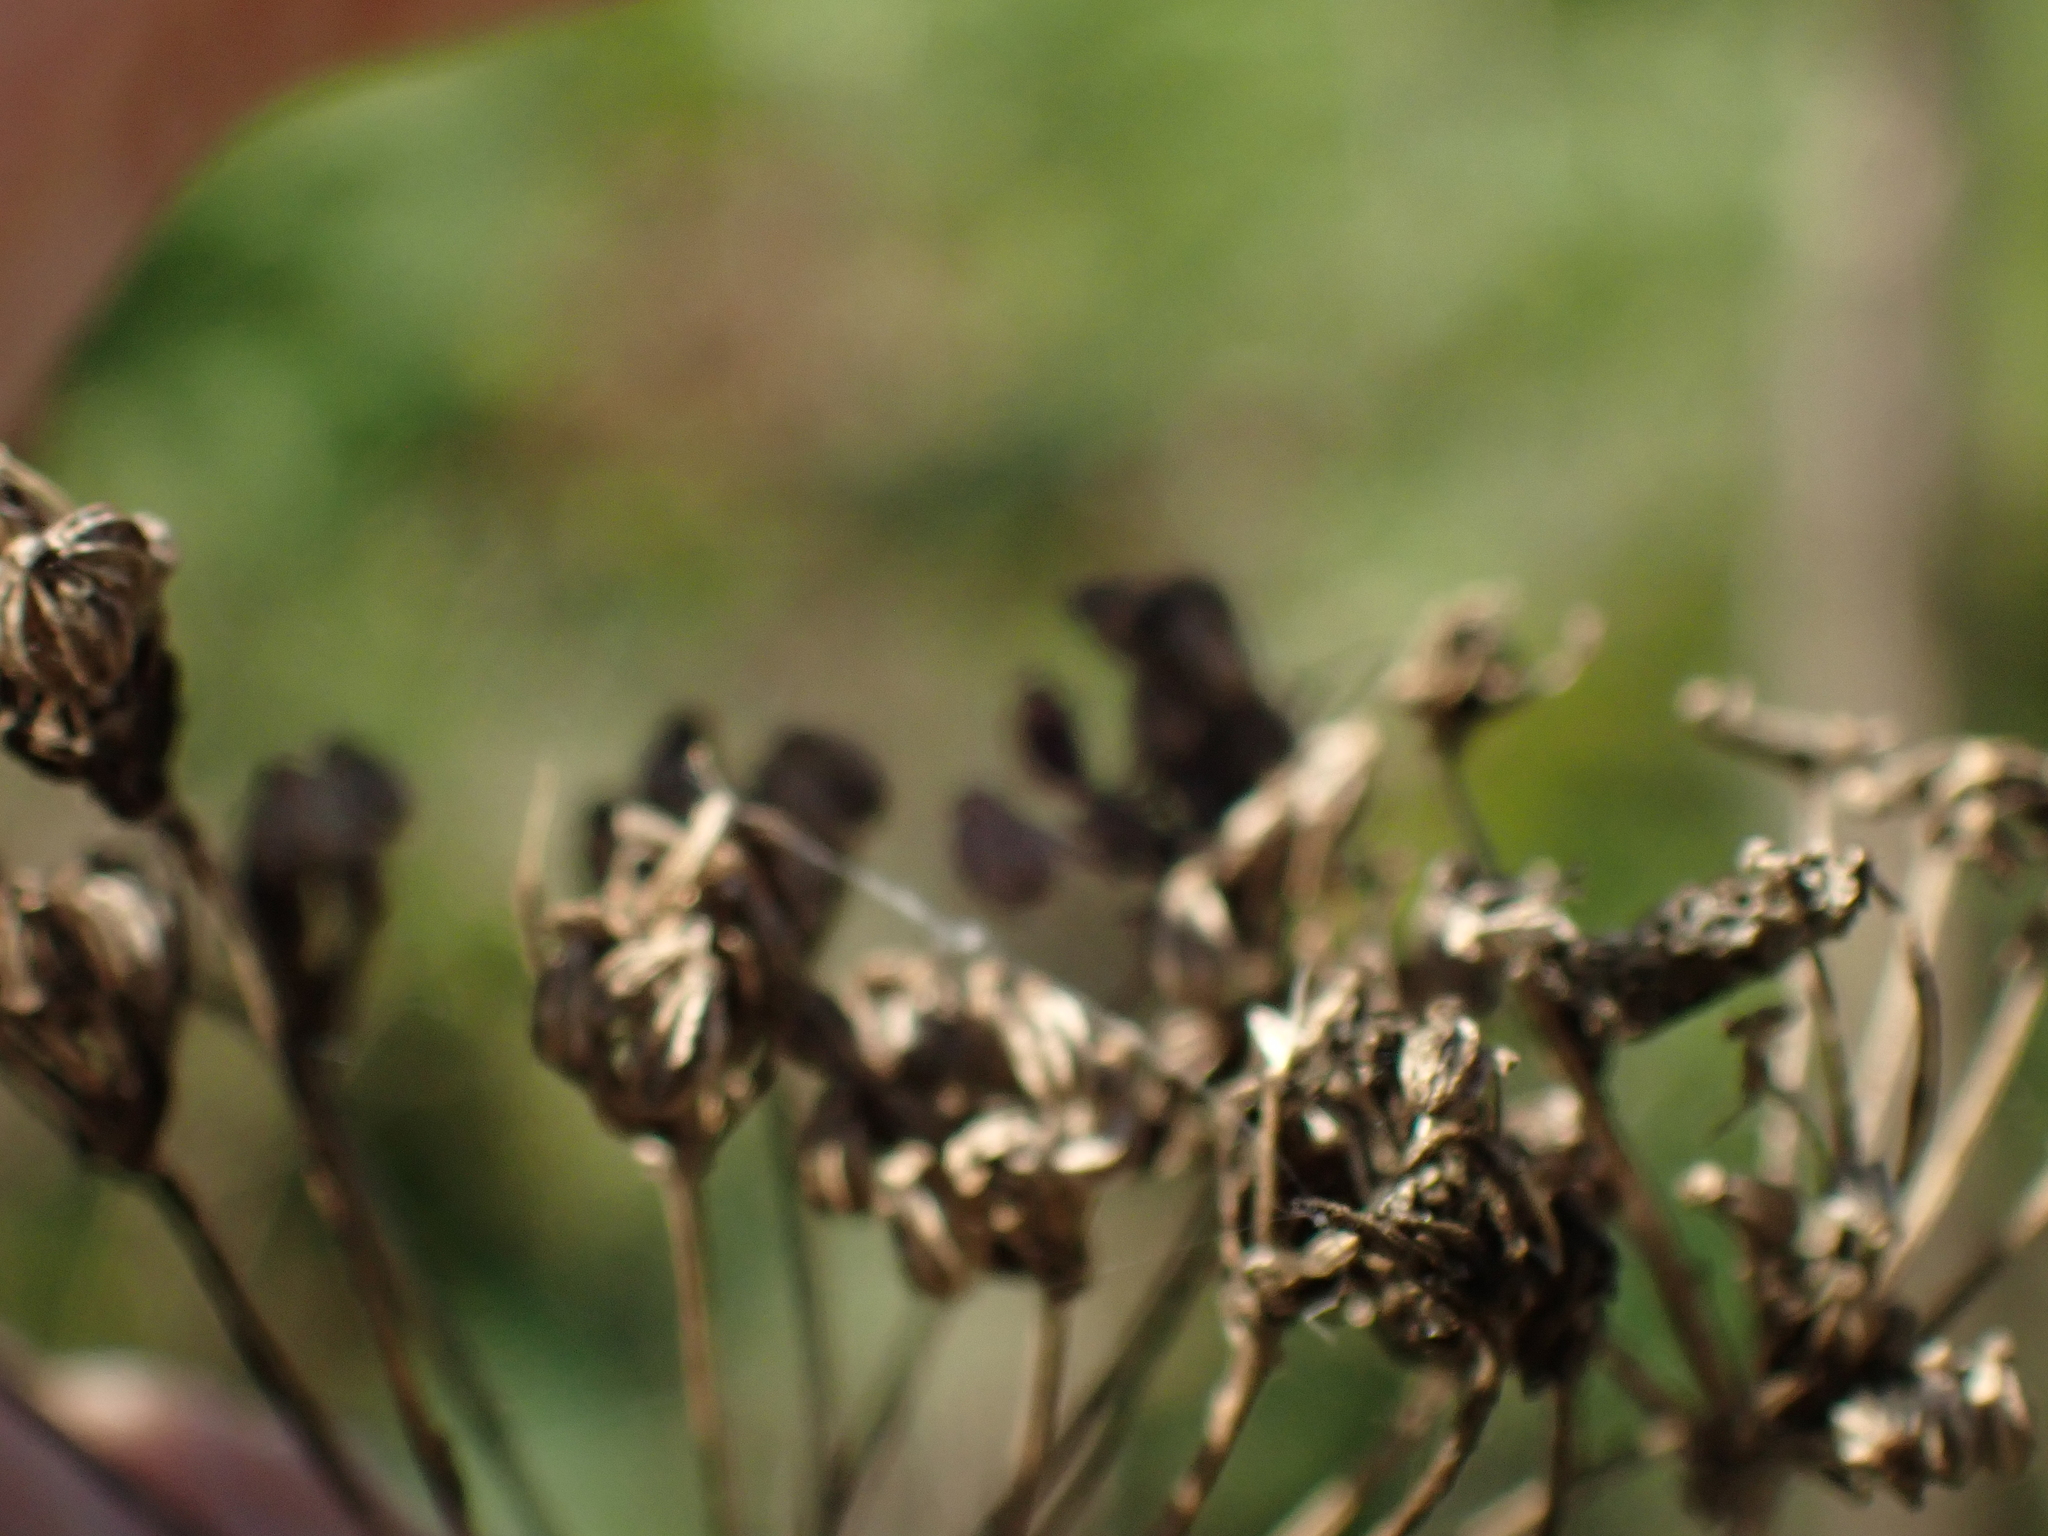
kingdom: Plantae
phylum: Tracheophyta
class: Magnoliopsida
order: Apiales
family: Apiaceae
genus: Conium
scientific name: Conium maculatum
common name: Hemlock
